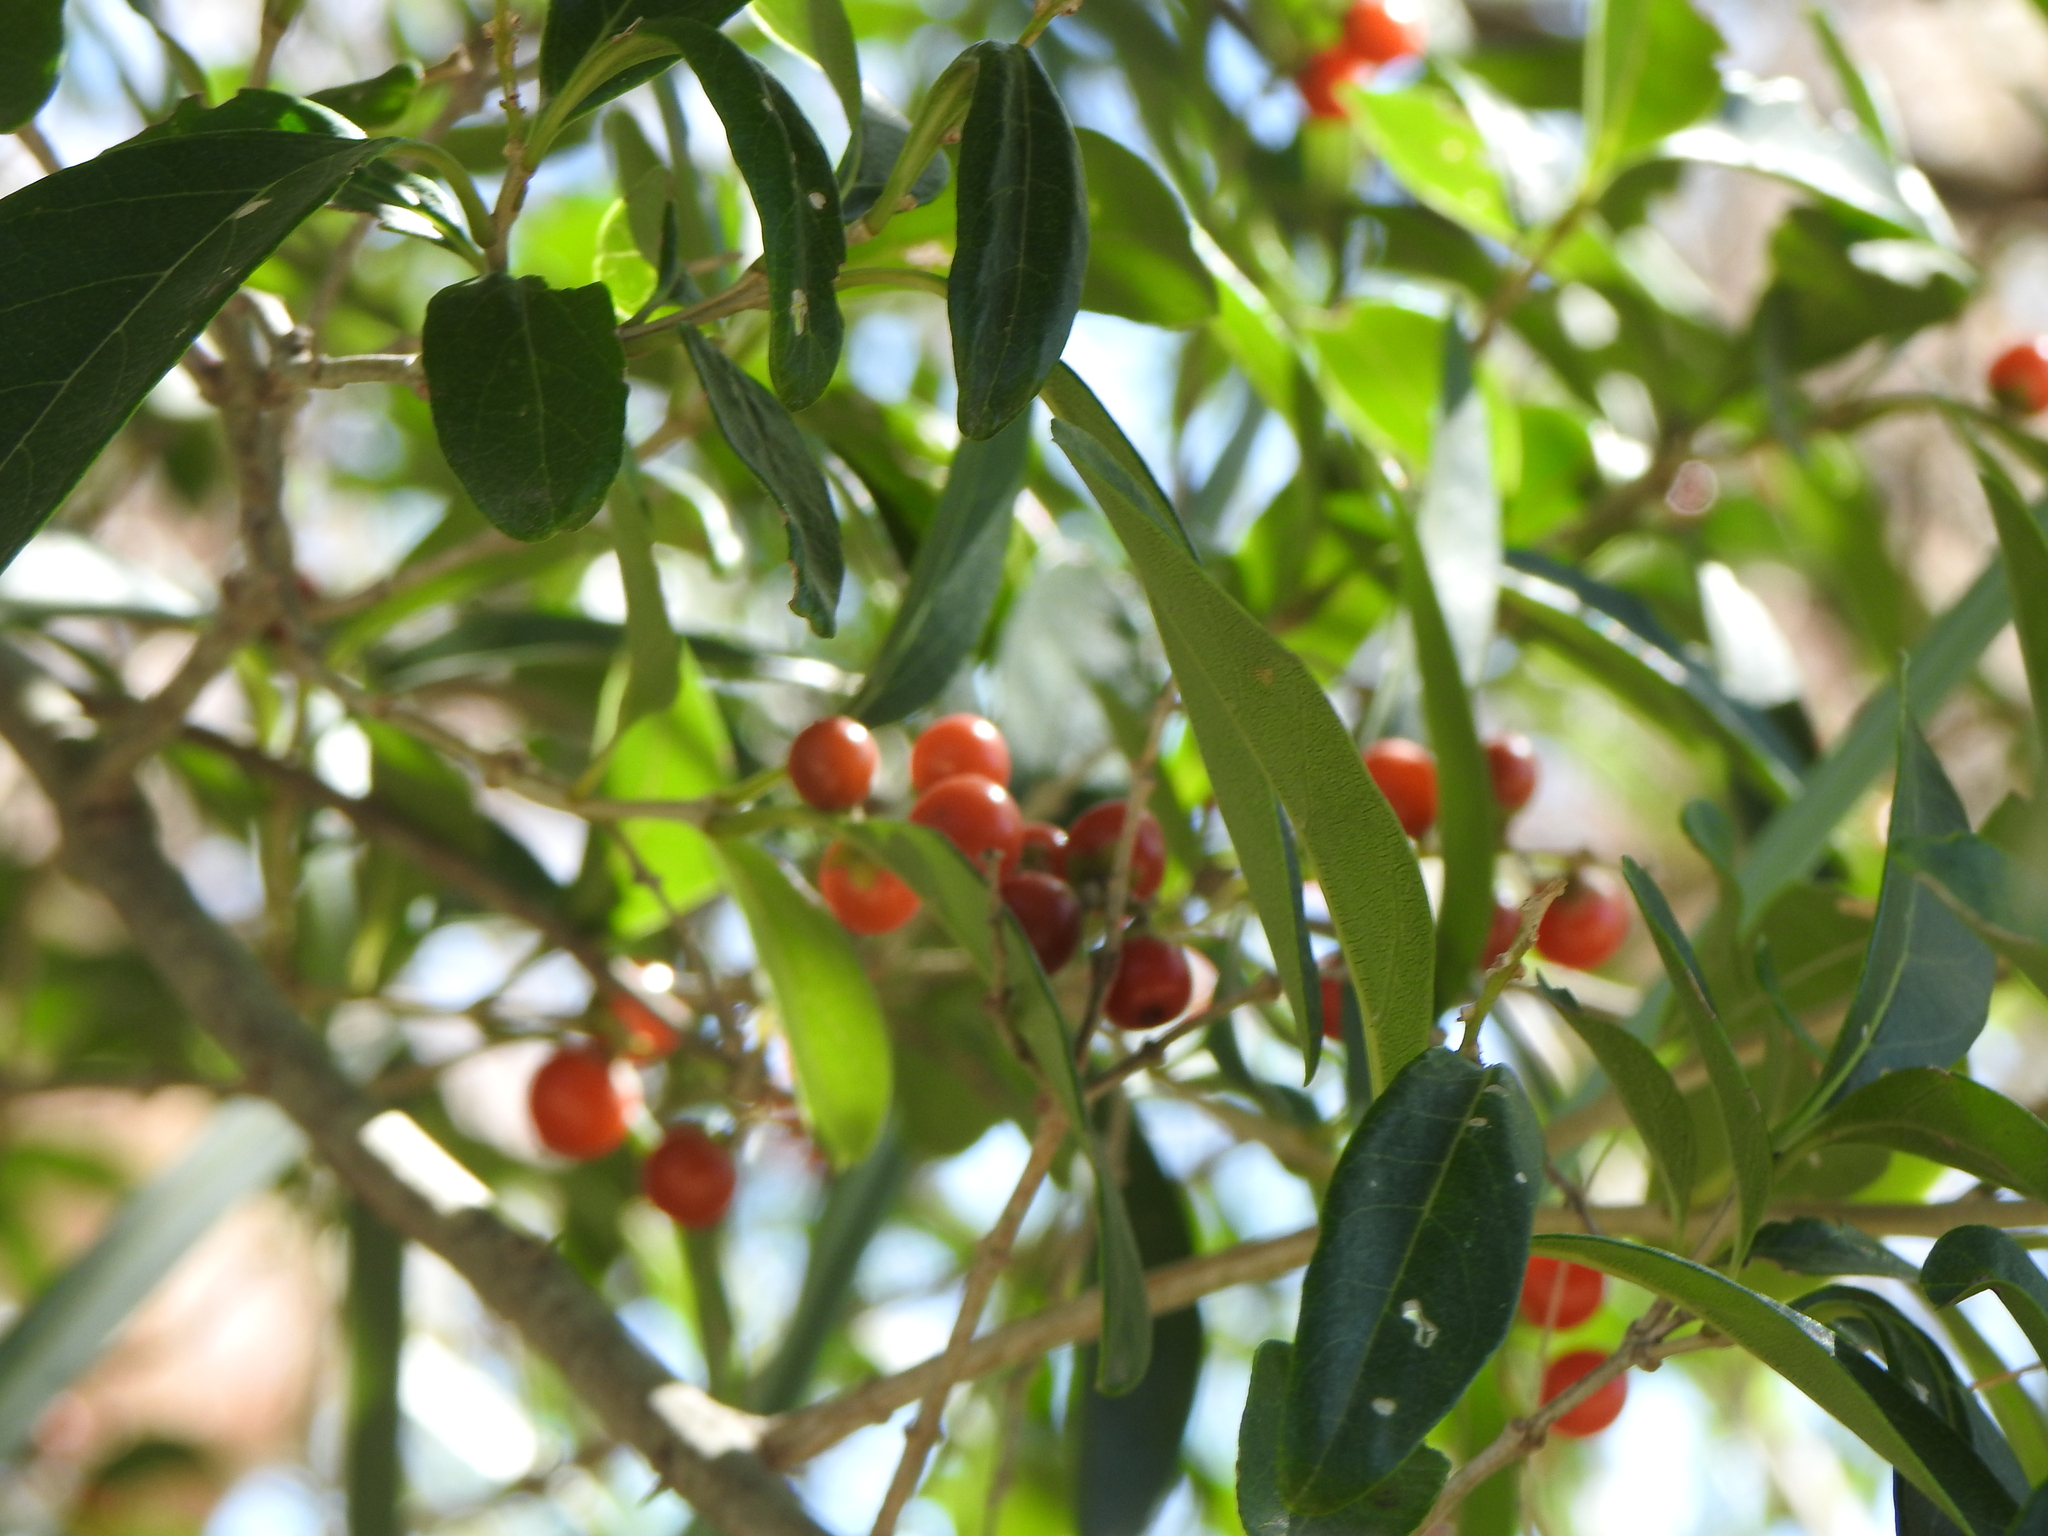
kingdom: Plantae
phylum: Tracheophyta
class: Magnoliopsida
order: Lamiales
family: Verbenaceae
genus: Citharexylum
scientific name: Citharexylum montevidense
